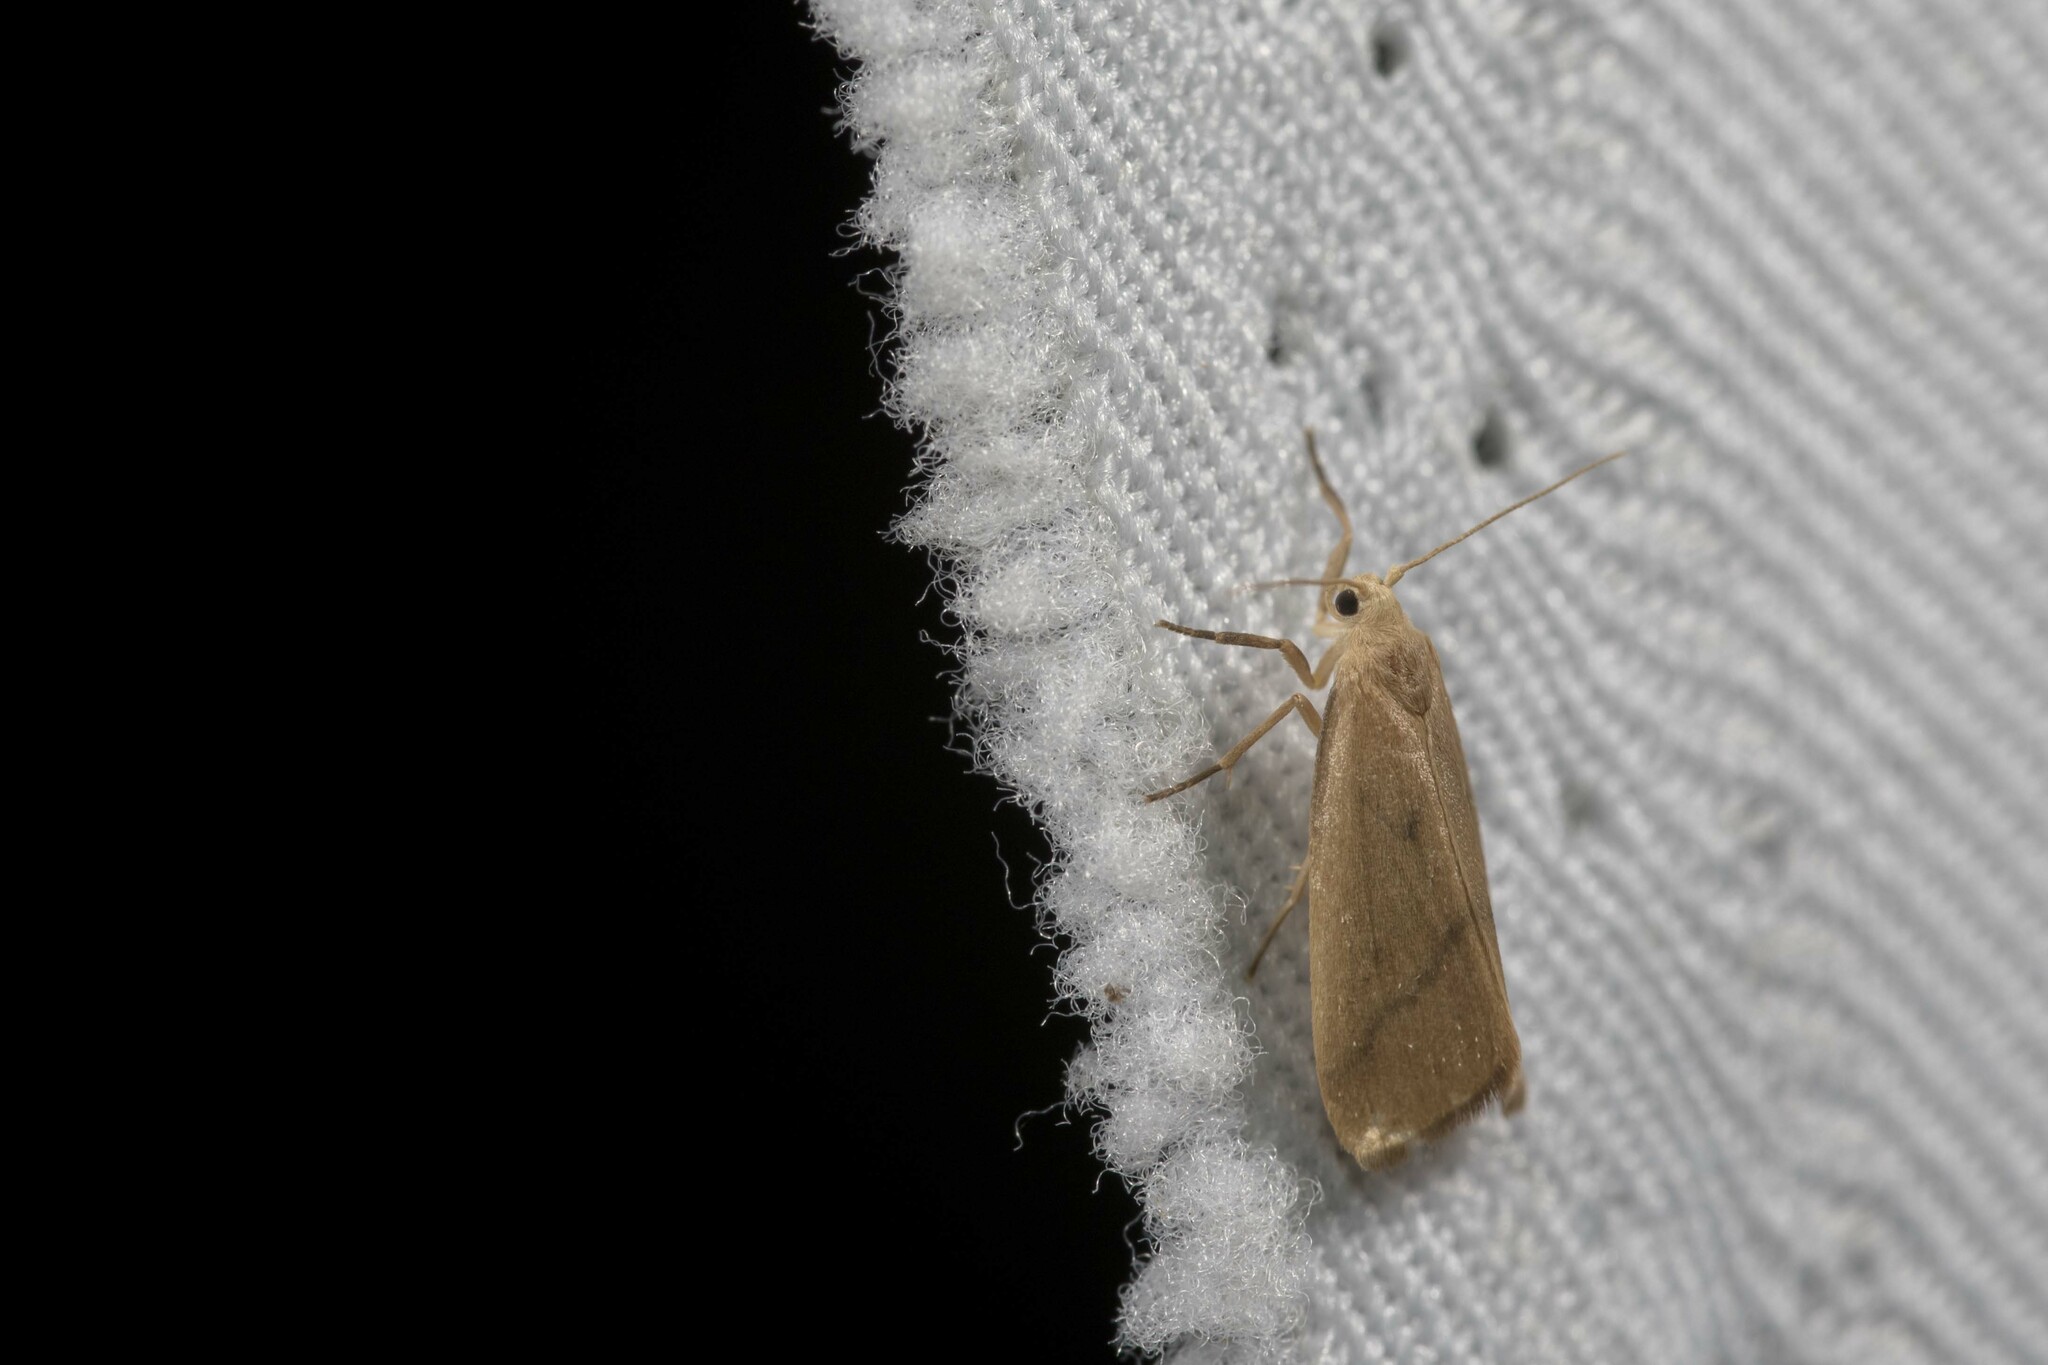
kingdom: Animalia
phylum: Arthropoda
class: Insecta
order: Lepidoptera
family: Erebidae
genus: Notata
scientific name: Notata parva
